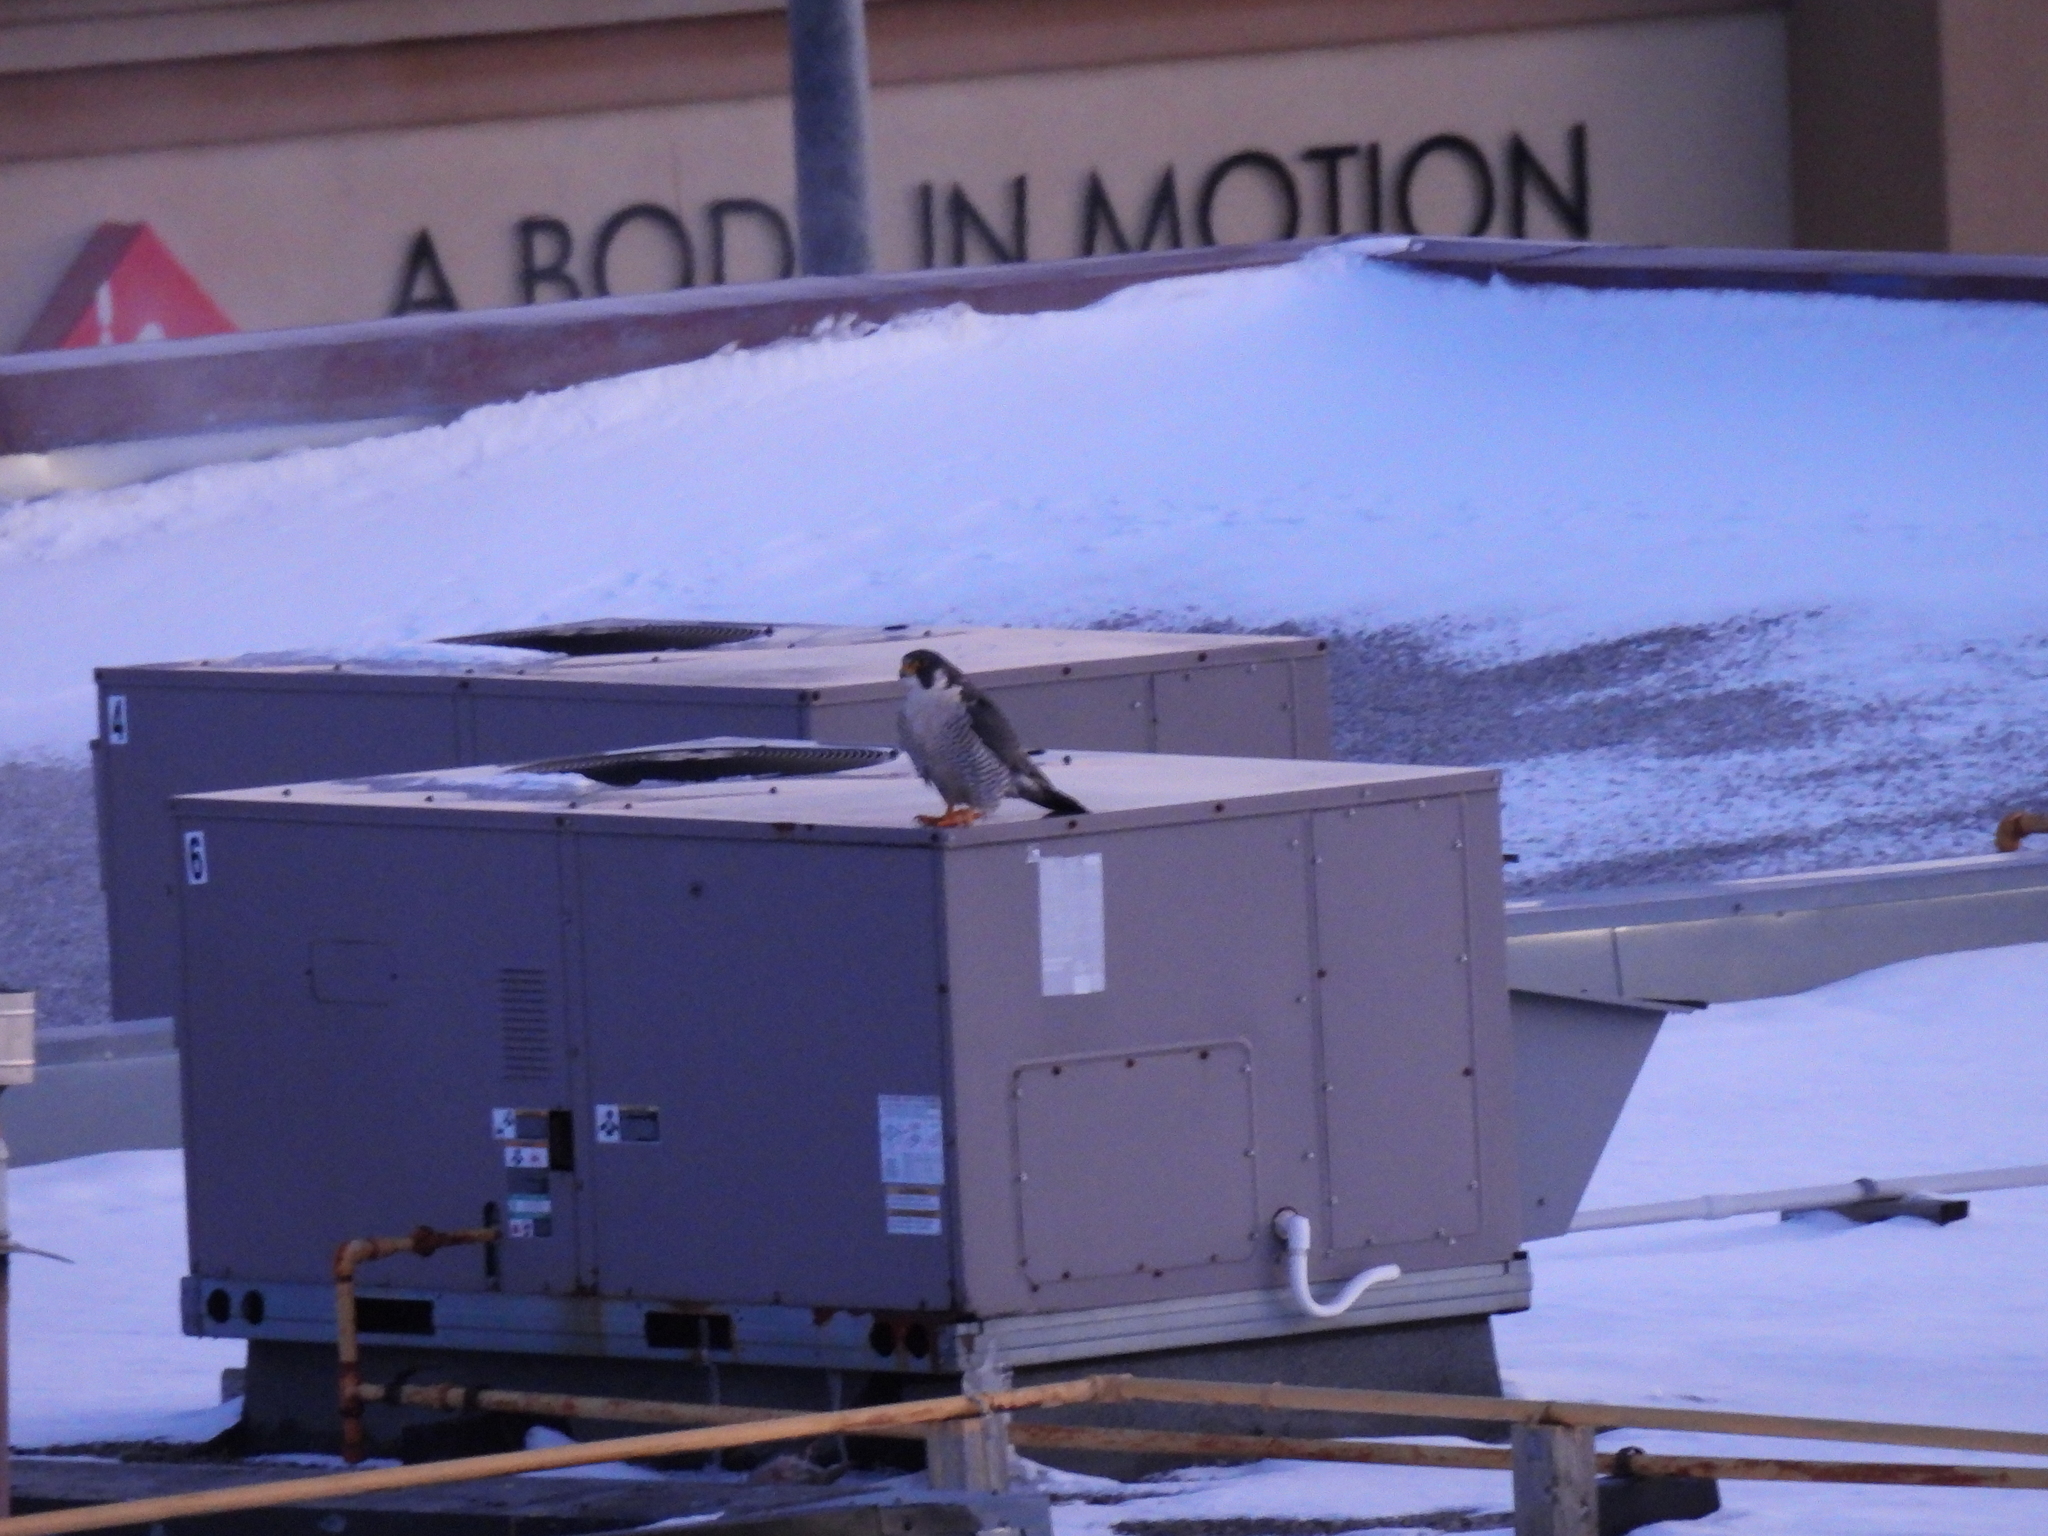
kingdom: Animalia
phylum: Chordata
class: Aves
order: Falconiformes
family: Falconidae
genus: Falco
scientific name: Falco peregrinus
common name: Peregrine falcon
